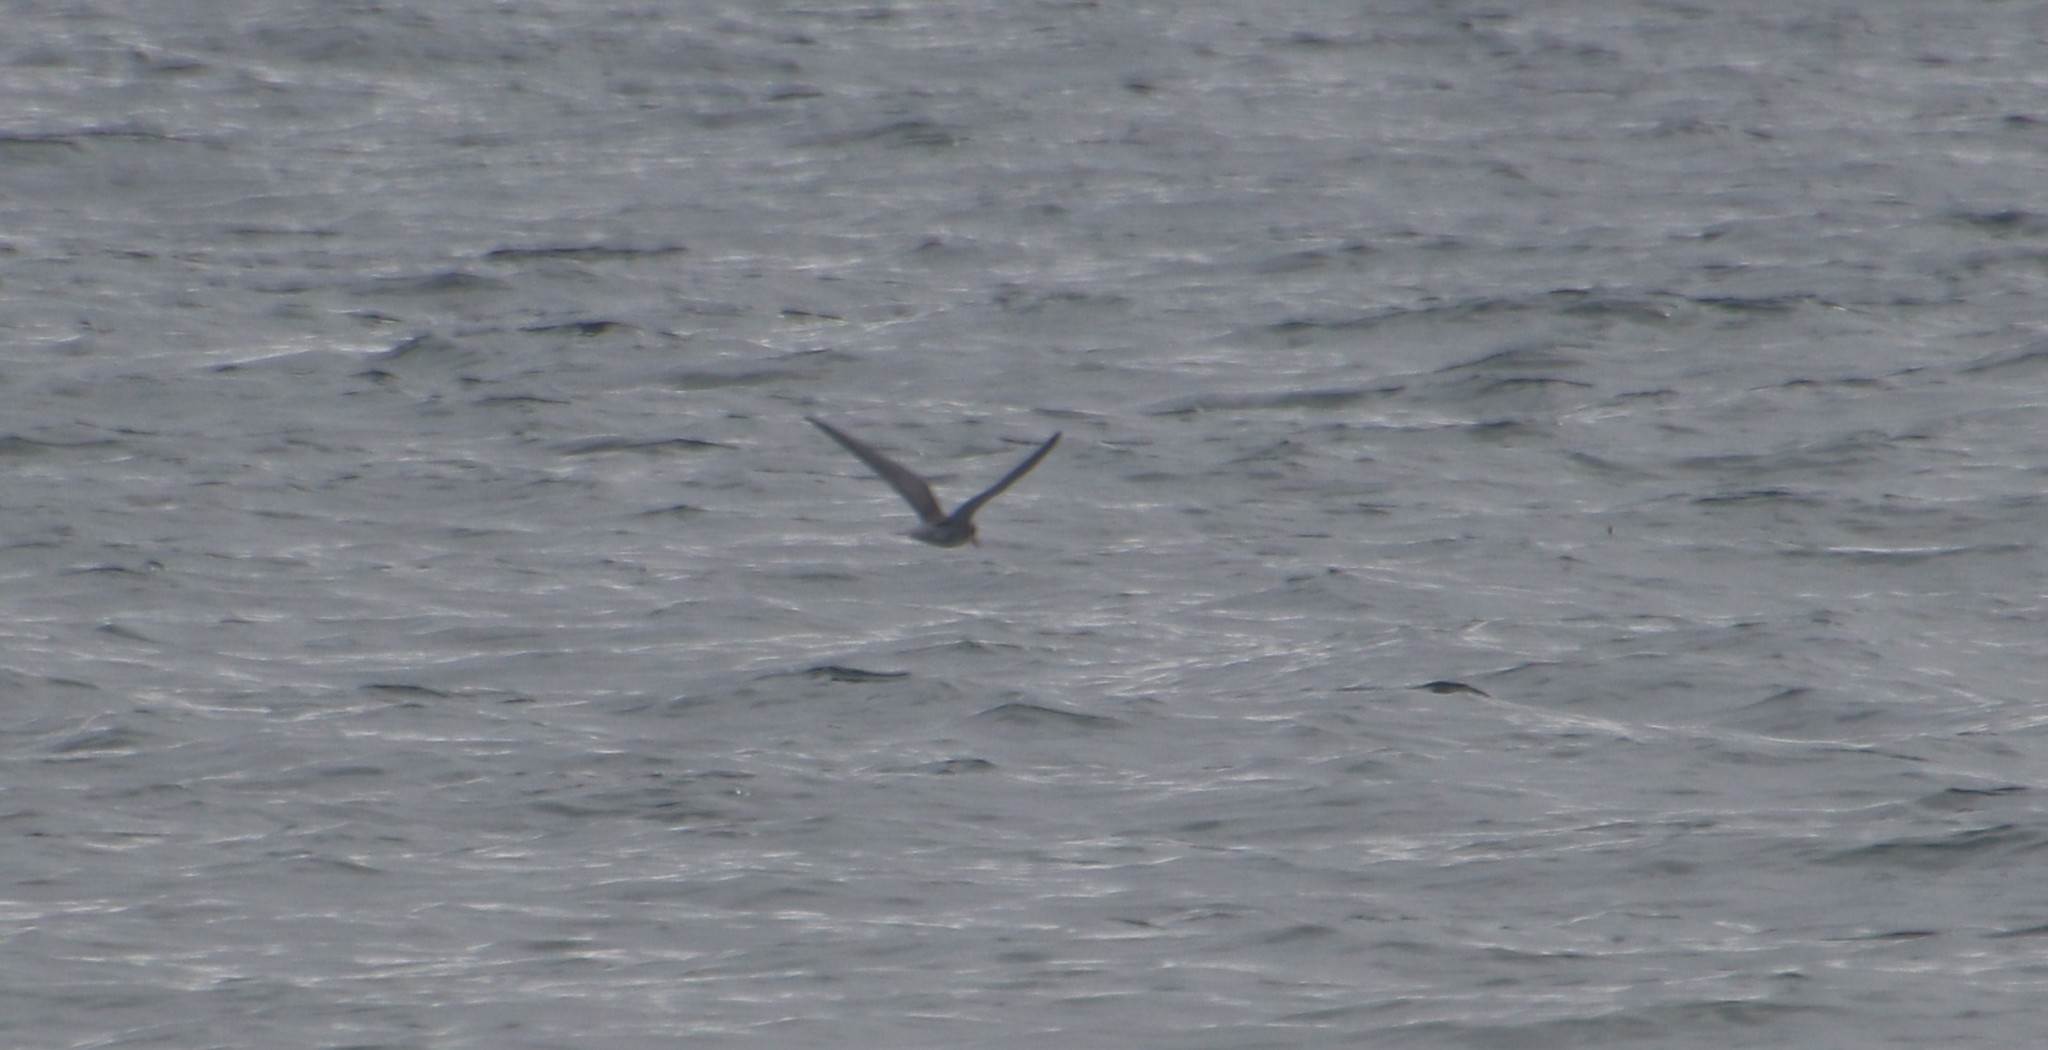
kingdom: Animalia
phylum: Chordata
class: Aves
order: Charadriiformes
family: Laridae
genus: Chlidonias
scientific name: Chlidonias niger
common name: Black tern
